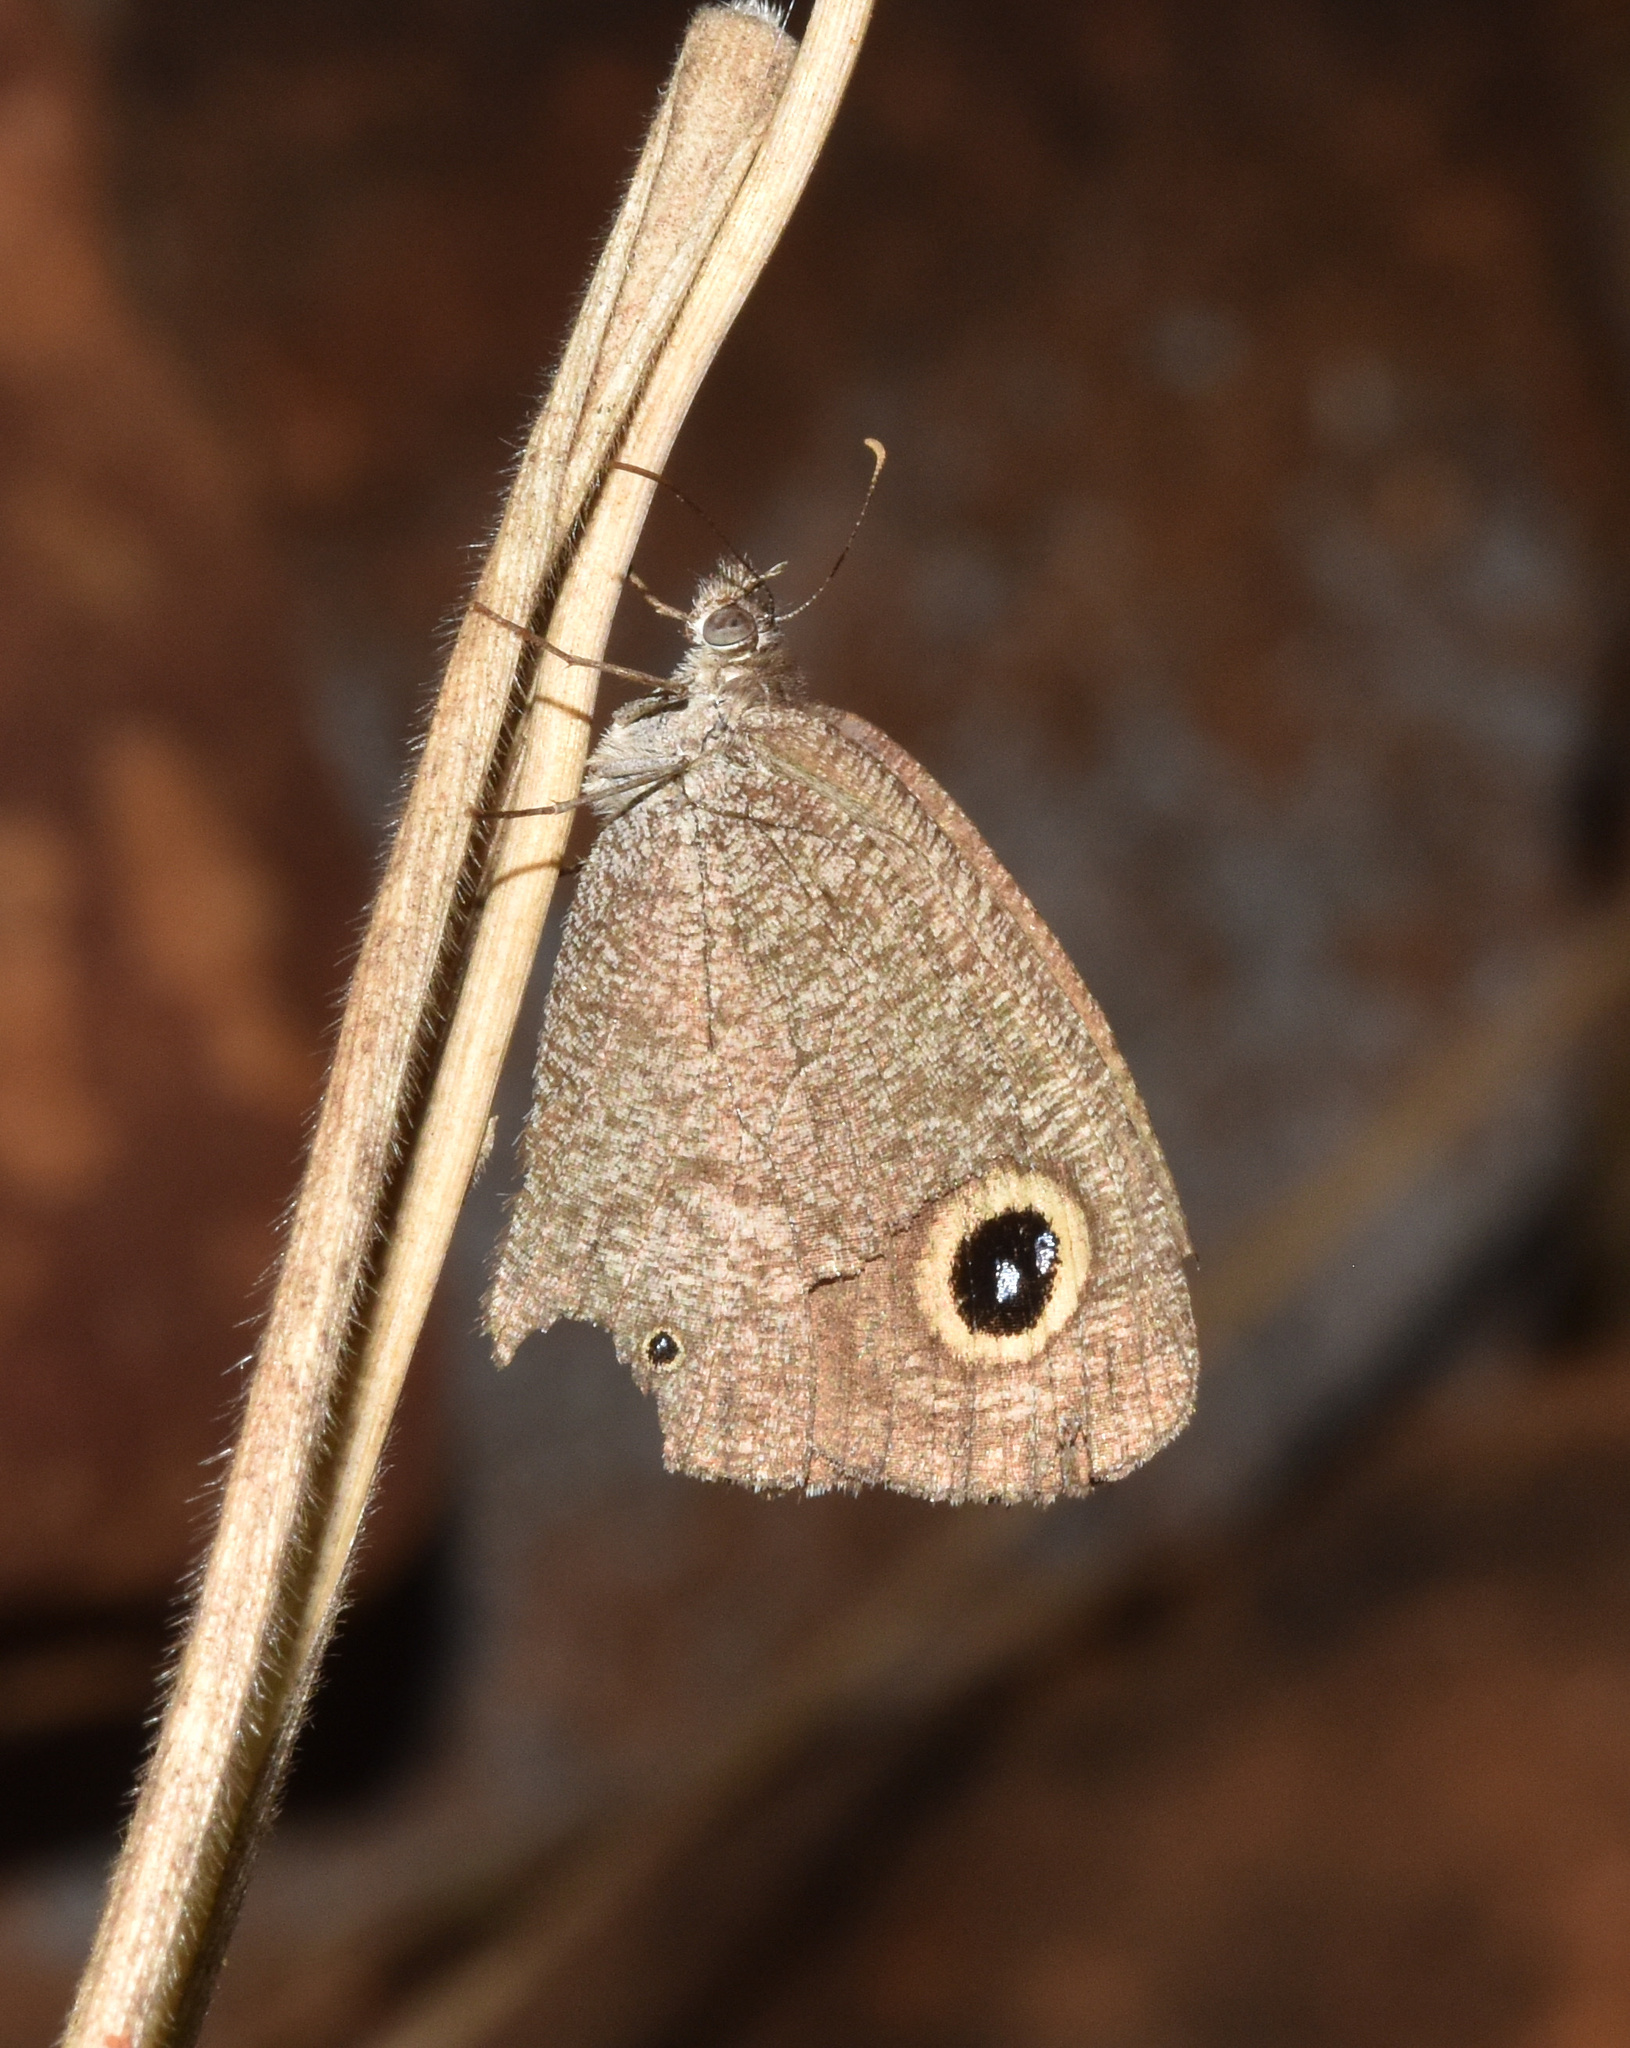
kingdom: Animalia
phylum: Arthropoda
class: Insecta
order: Lepidoptera
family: Nymphalidae
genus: Ypthima
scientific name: Ypthima asterope
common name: African ringlet
